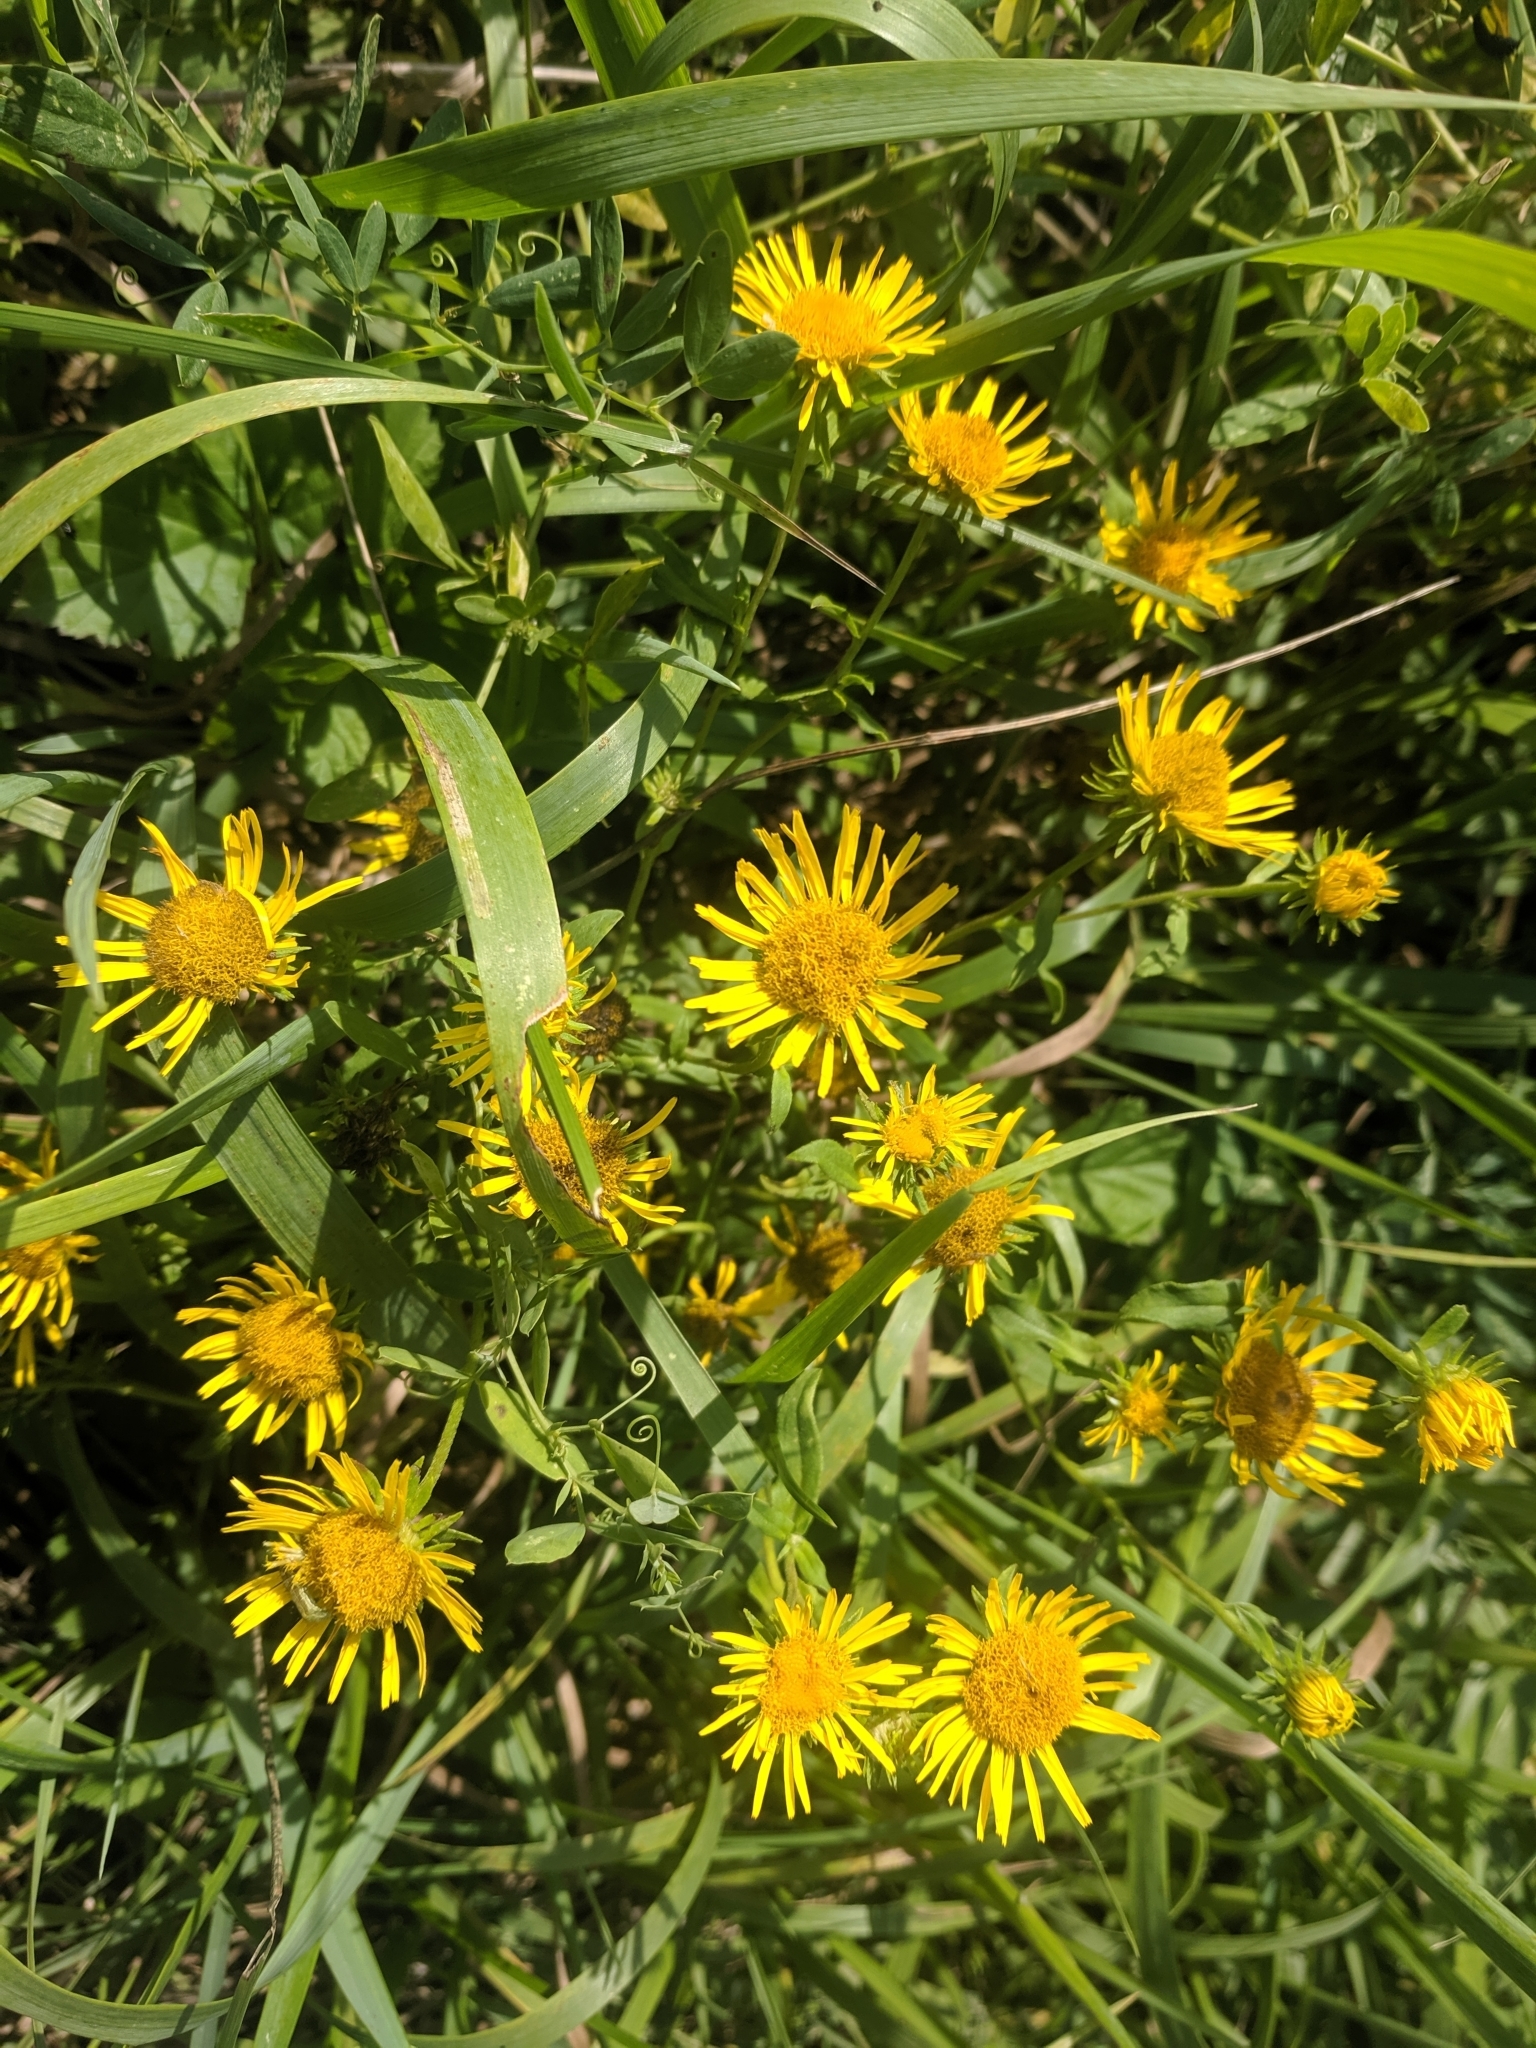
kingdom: Plantae
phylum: Tracheophyta
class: Magnoliopsida
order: Asterales
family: Asteraceae
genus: Pentanema
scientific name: Pentanema britannicum
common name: British elecampane
